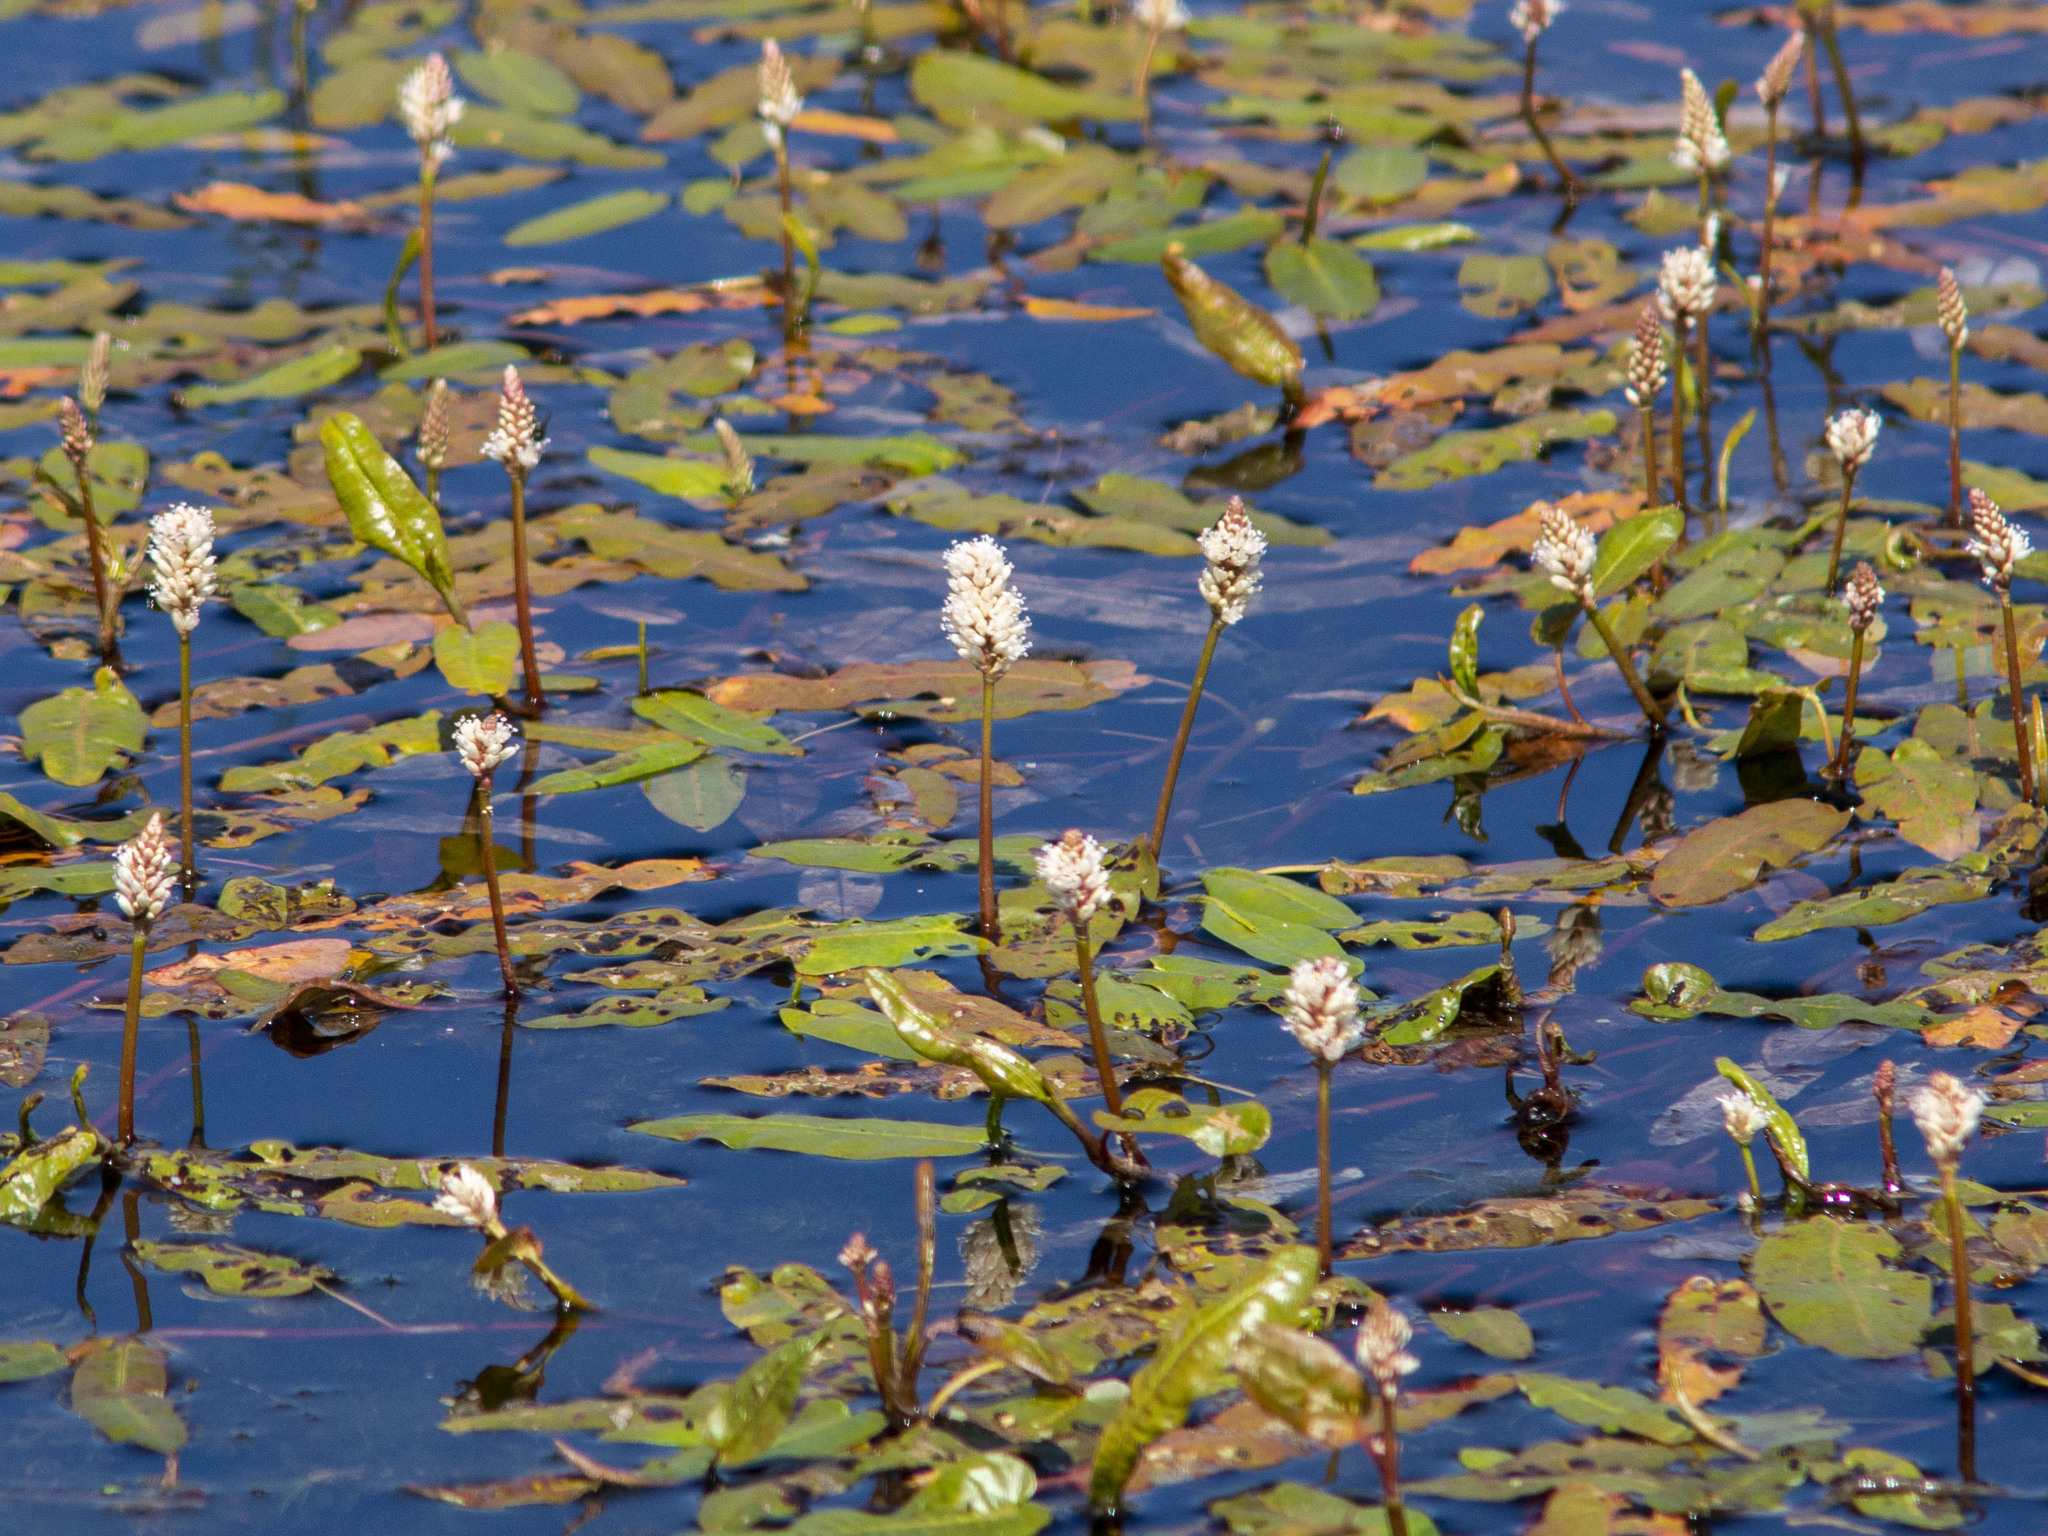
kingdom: Plantae
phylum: Tracheophyta
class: Magnoliopsida
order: Caryophyllales
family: Polygonaceae
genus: Persicaria
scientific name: Persicaria amphibia
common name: Amphibious bistort
